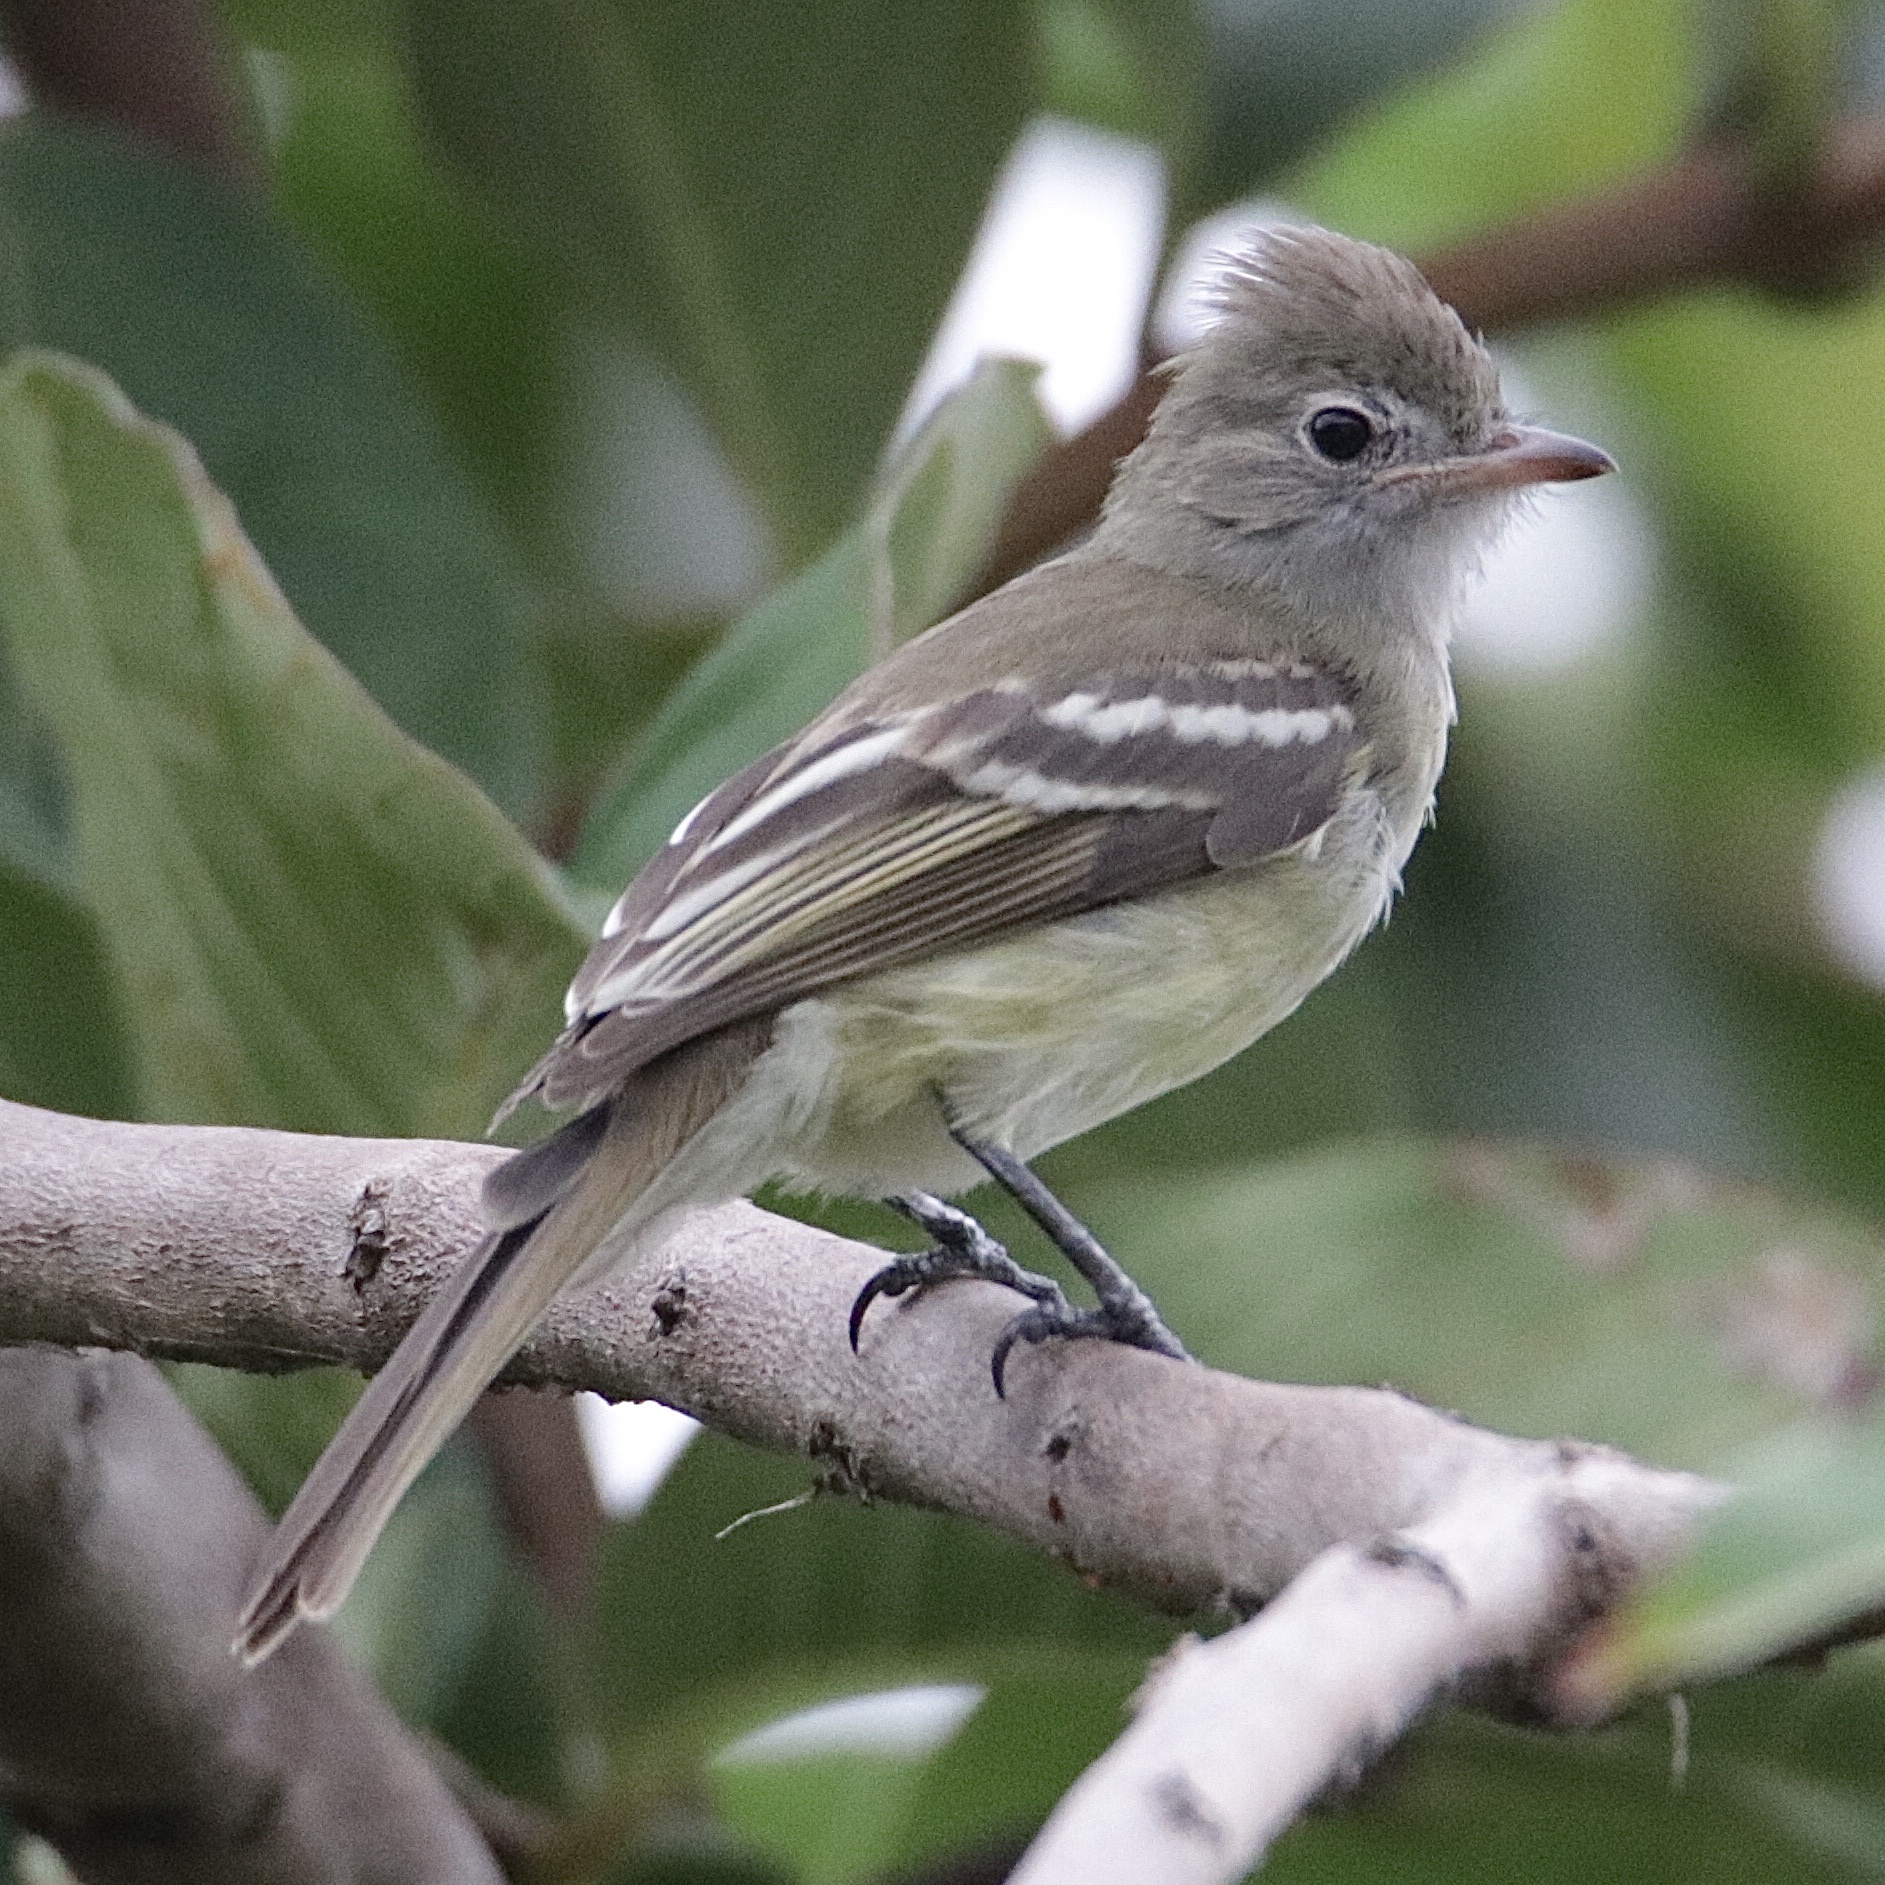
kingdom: Animalia
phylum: Chordata
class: Aves
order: Passeriformes
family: Tyrannidae
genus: Elaenia
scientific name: Elaenia flavogaster
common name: Yellow-bellied elaenia
